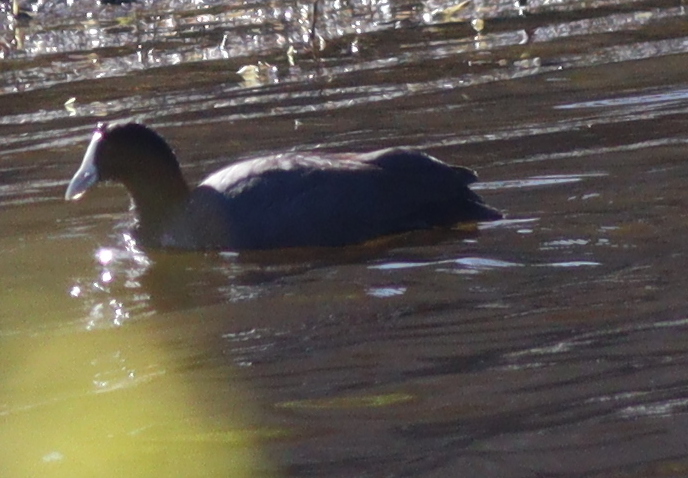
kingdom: Animalia
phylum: Chordata
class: Aves
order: Gruiformes
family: Rallidae
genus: Fulica
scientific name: Fulica cristata
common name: Red-knobbed coot
